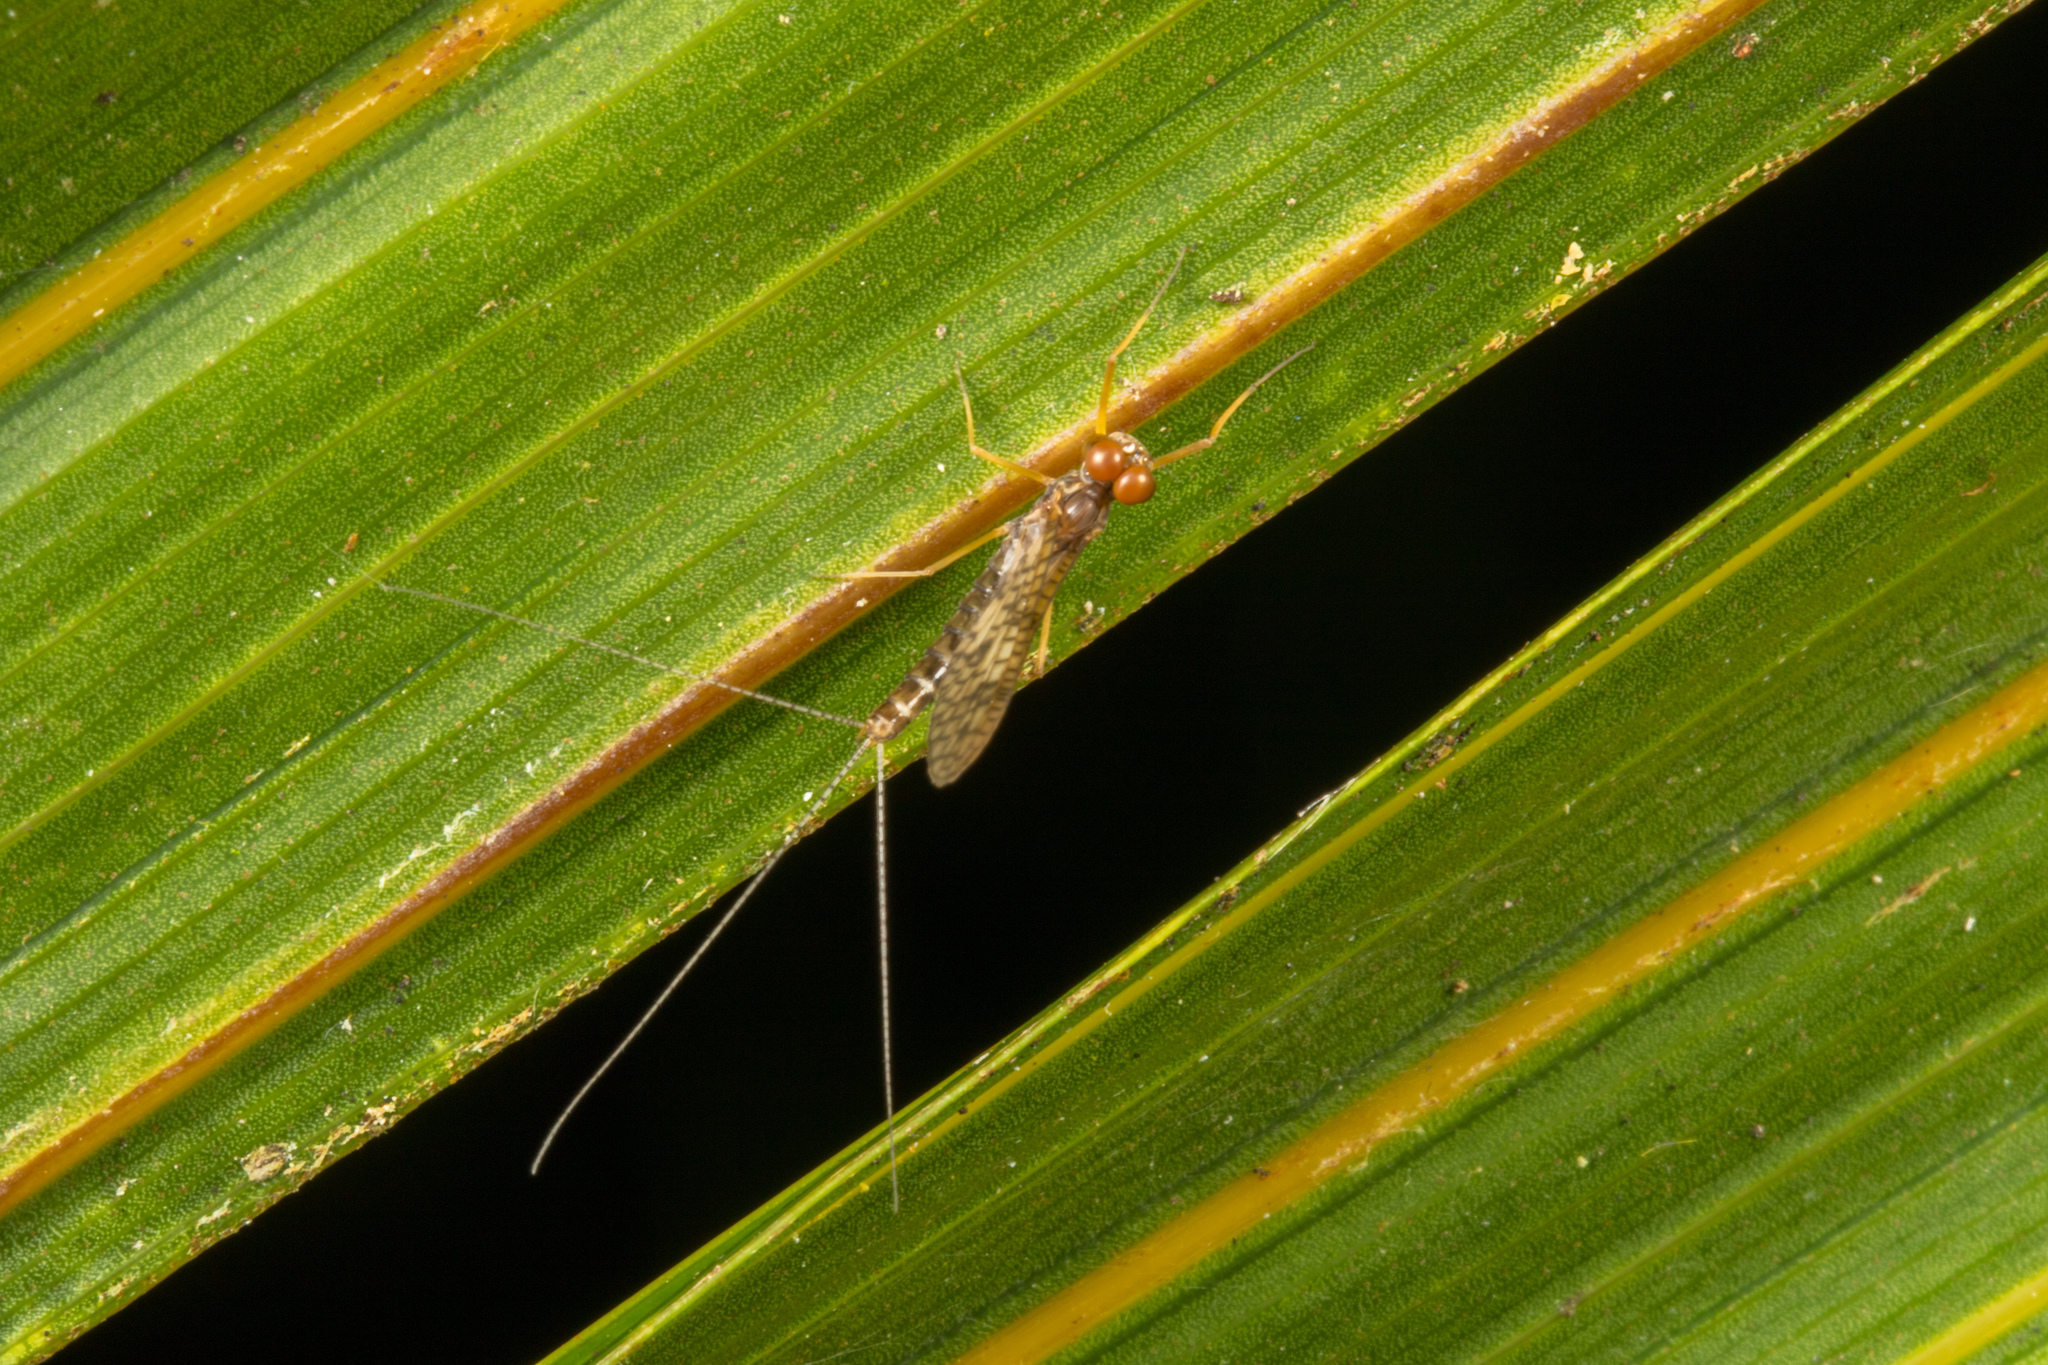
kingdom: Animalia
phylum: Arthropoda
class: Insecta
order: Ephemeroptera
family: Leptophlebiidae
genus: Zephlebia
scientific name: Zephlebia versicolor
